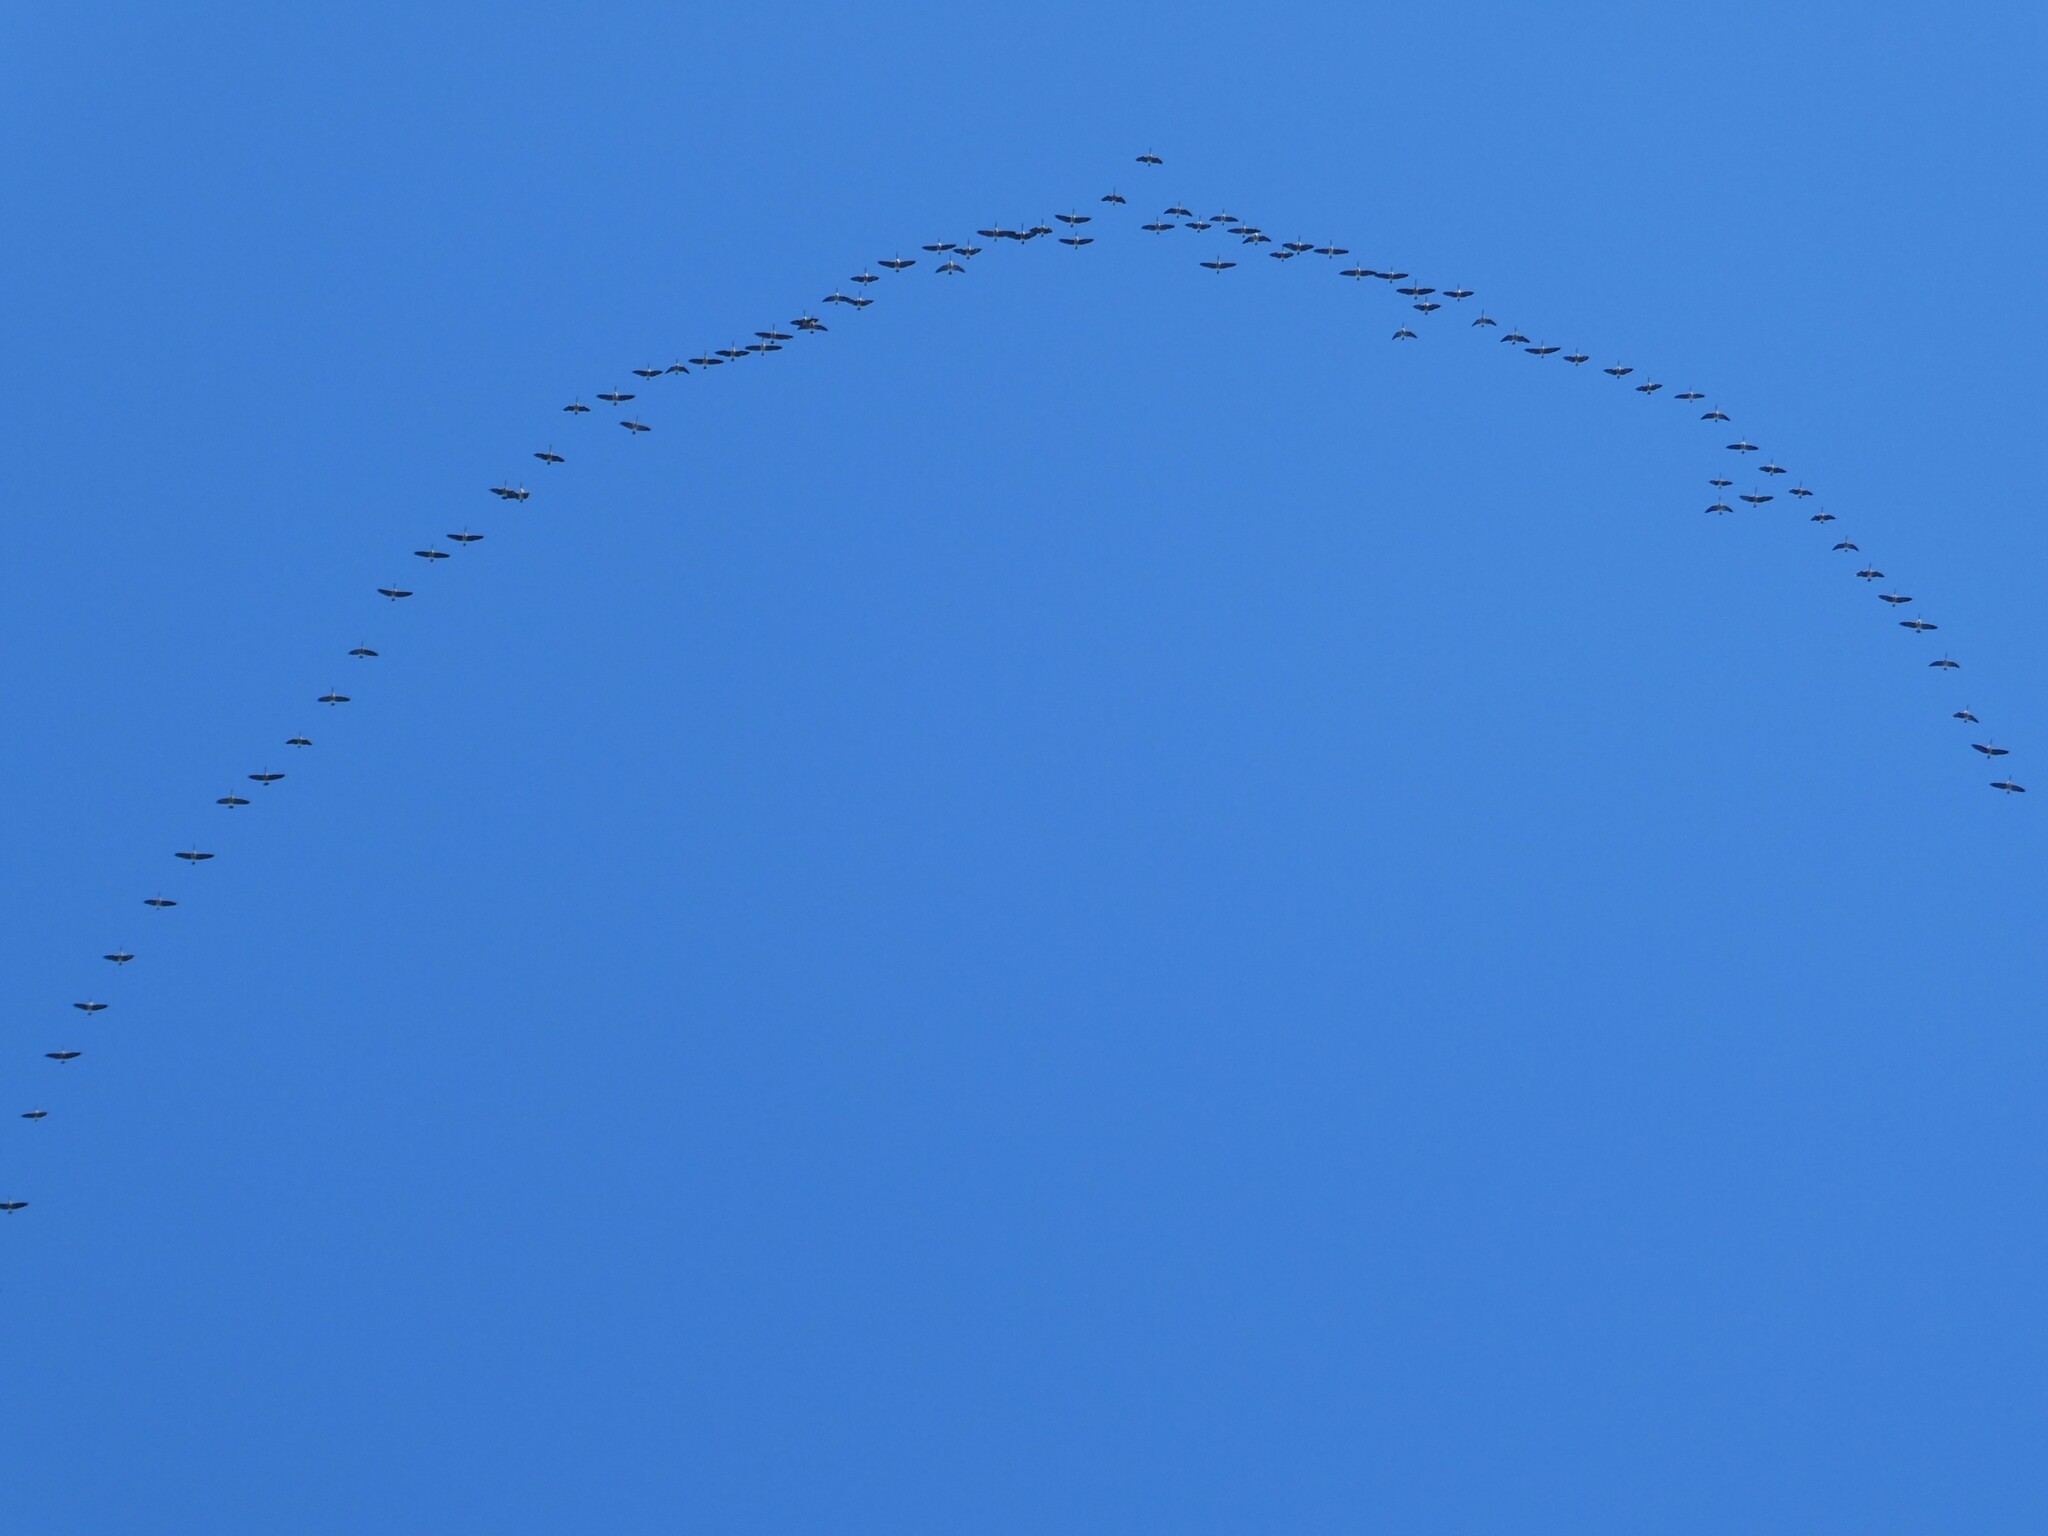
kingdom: Animalia
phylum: Chordata
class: Aves
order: Anseriformes
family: Anatidae
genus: Branta
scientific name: Branta canadensis
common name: Canada goose
